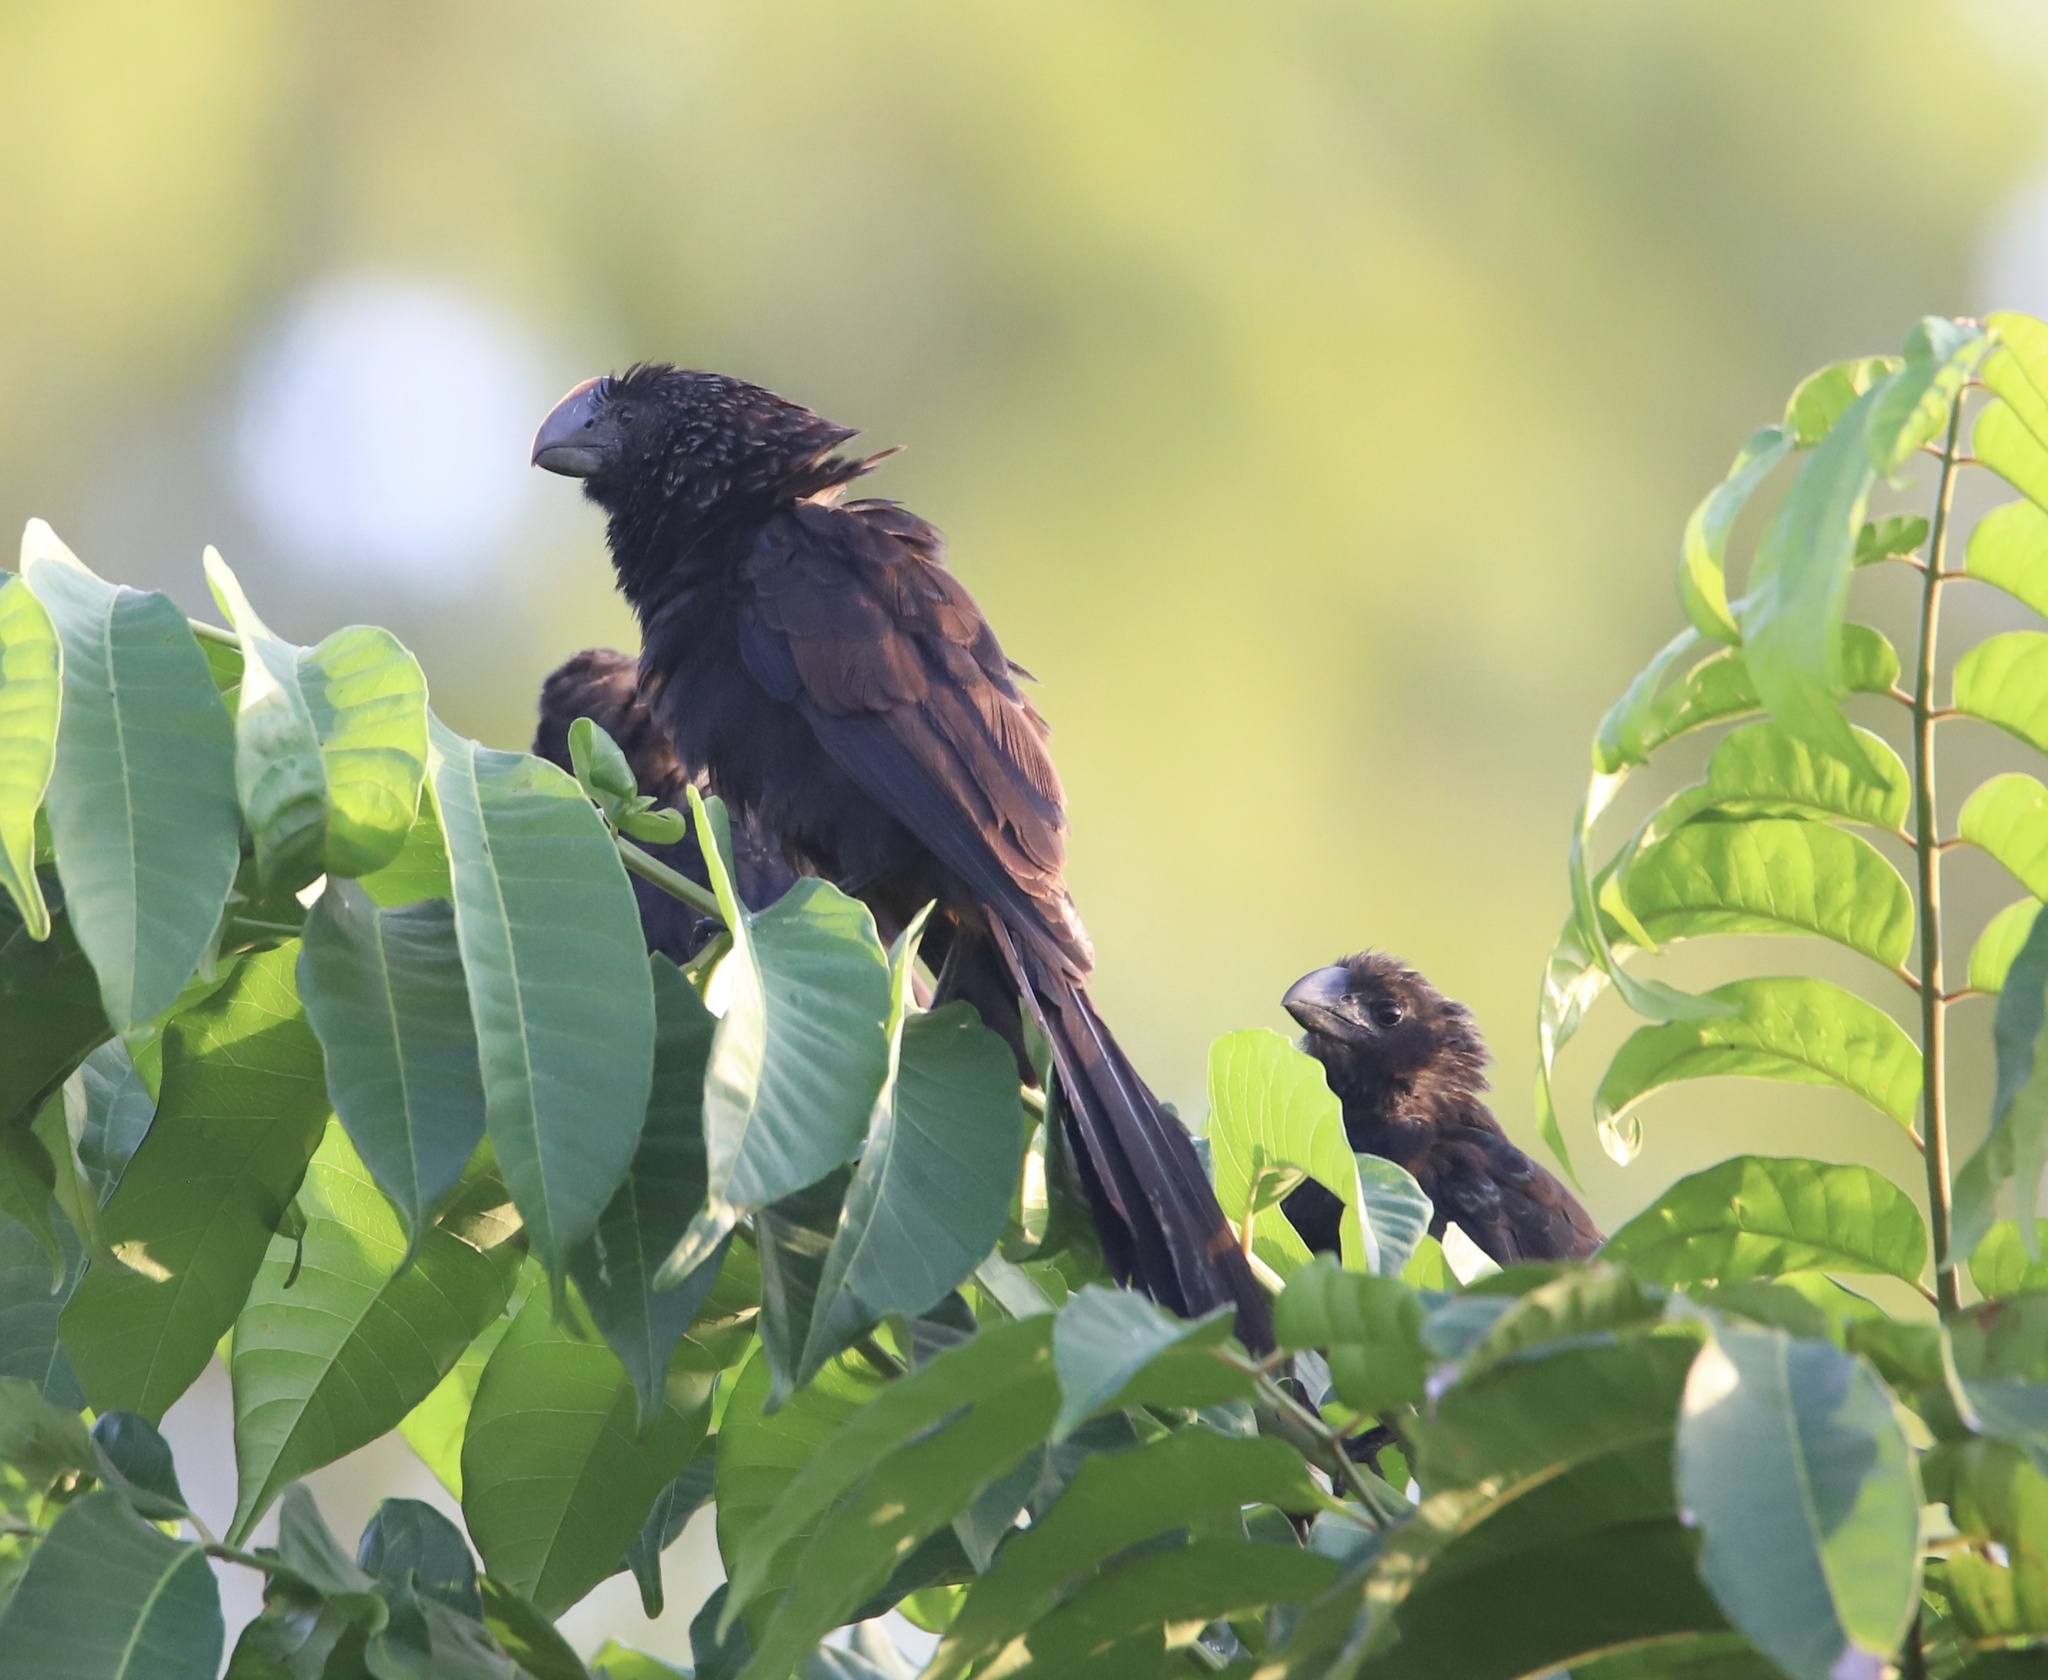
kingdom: Animalia
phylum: Chordata
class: Aves
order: Cuculiformes
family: Cuculidae
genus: Crotophaga
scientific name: Crotophaga ani
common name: Smooth-billed ani
